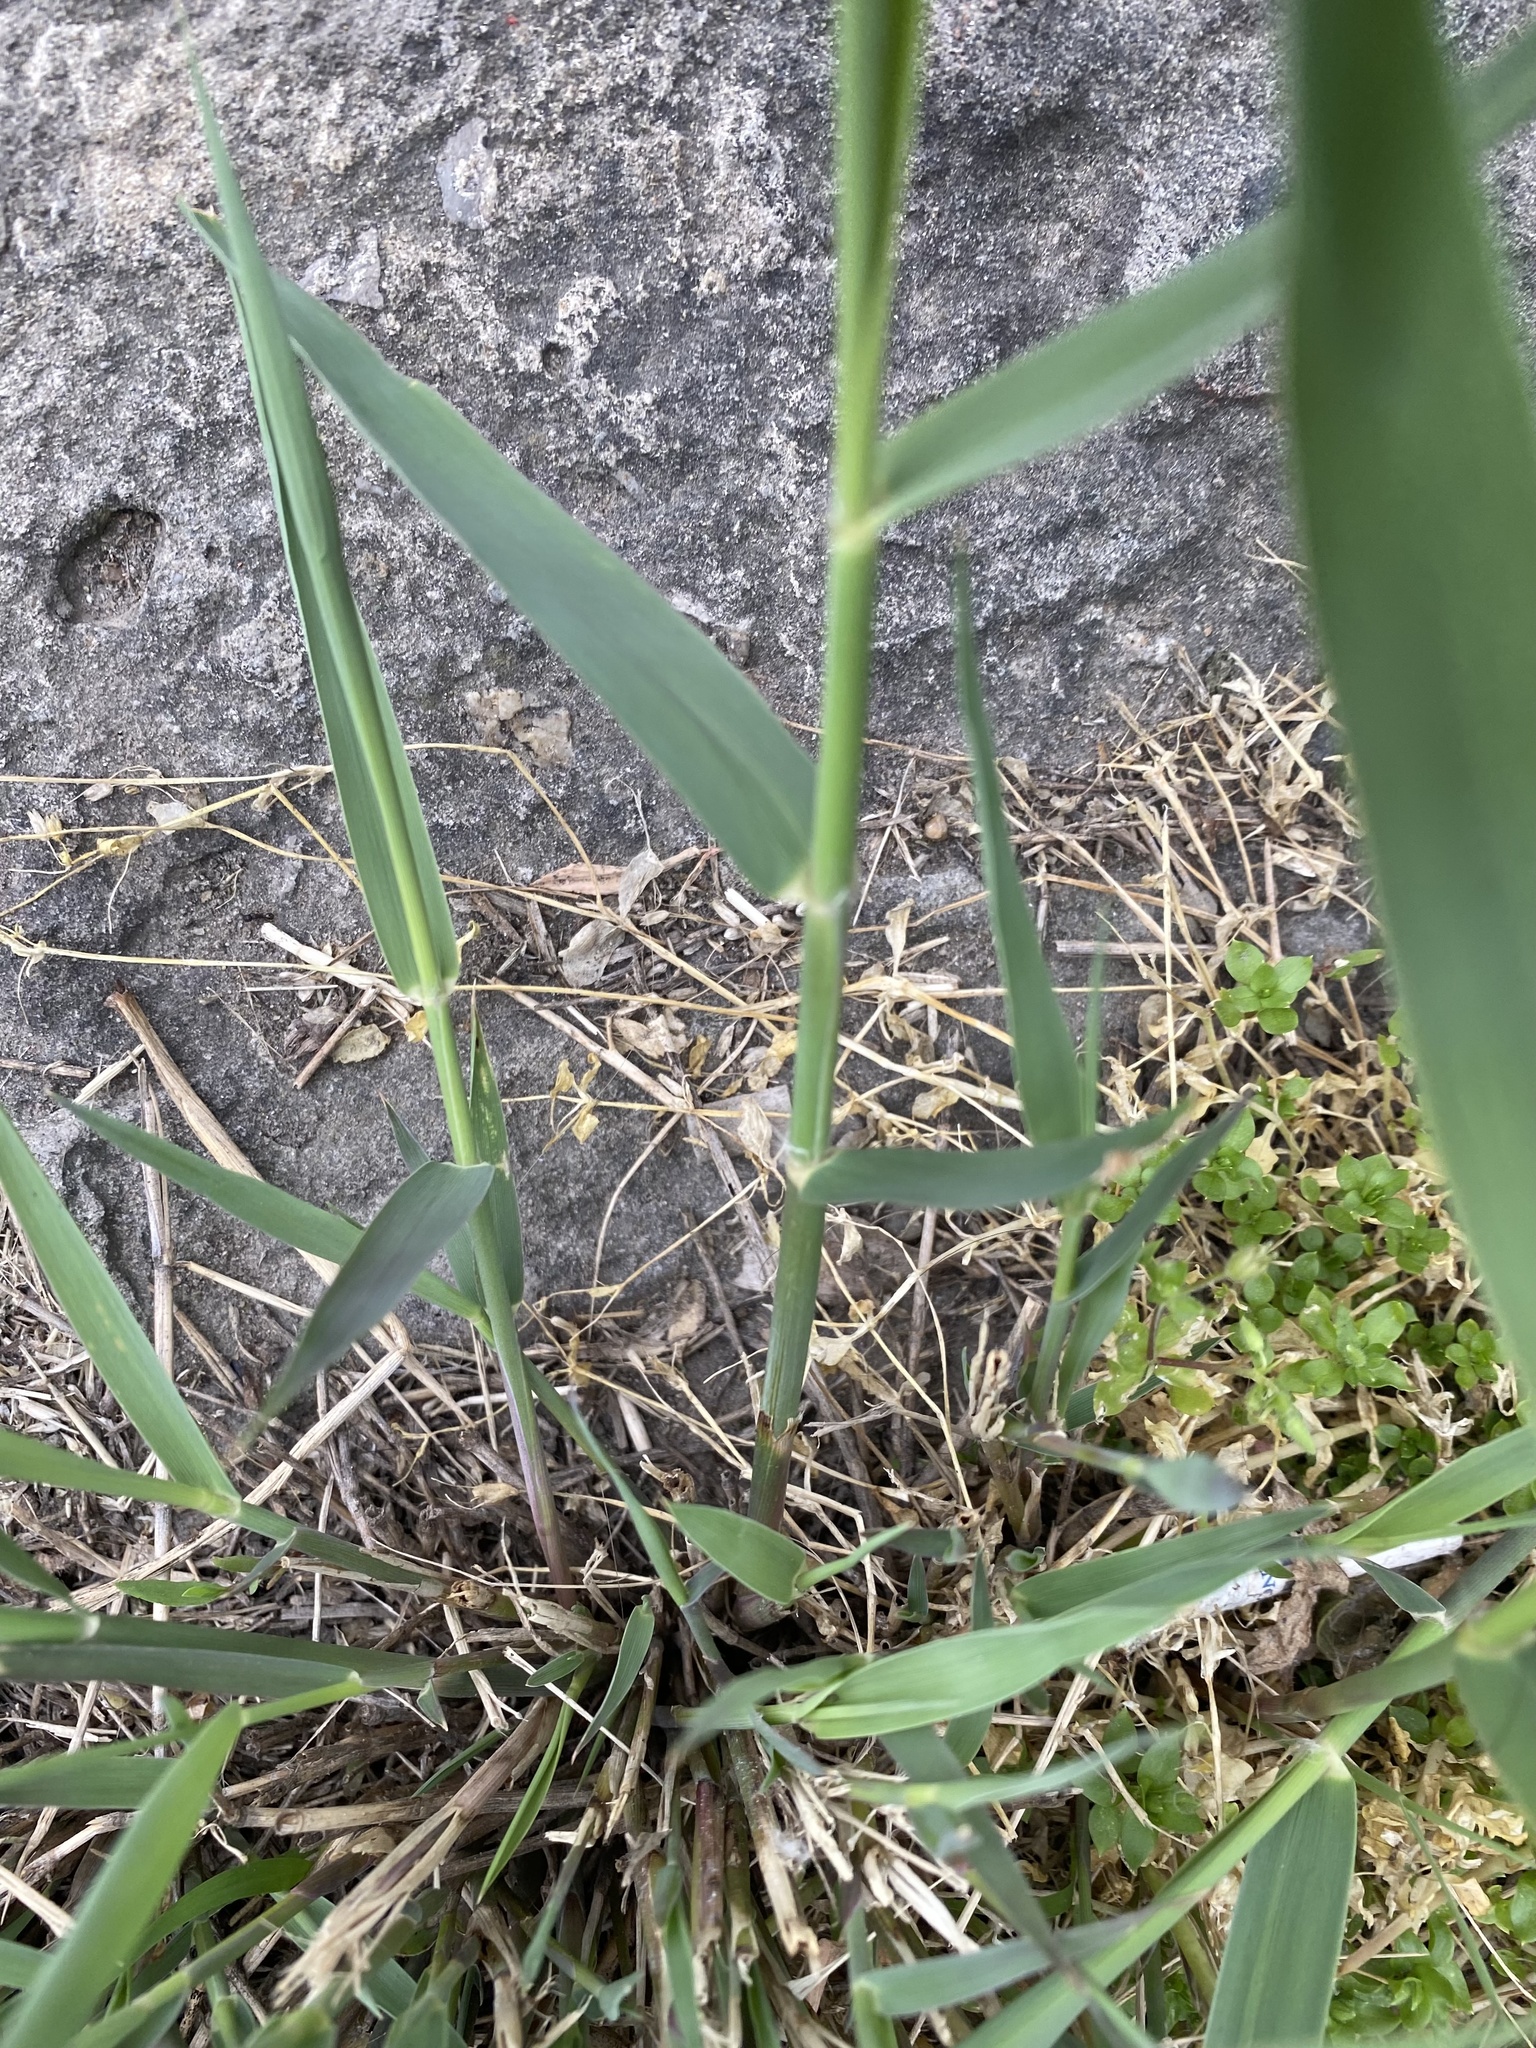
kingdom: Plantae
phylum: Tracheophyta
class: Liliopsida
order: Poales
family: Poaceae
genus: Phragmites
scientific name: Phragmites australis
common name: Common reed
